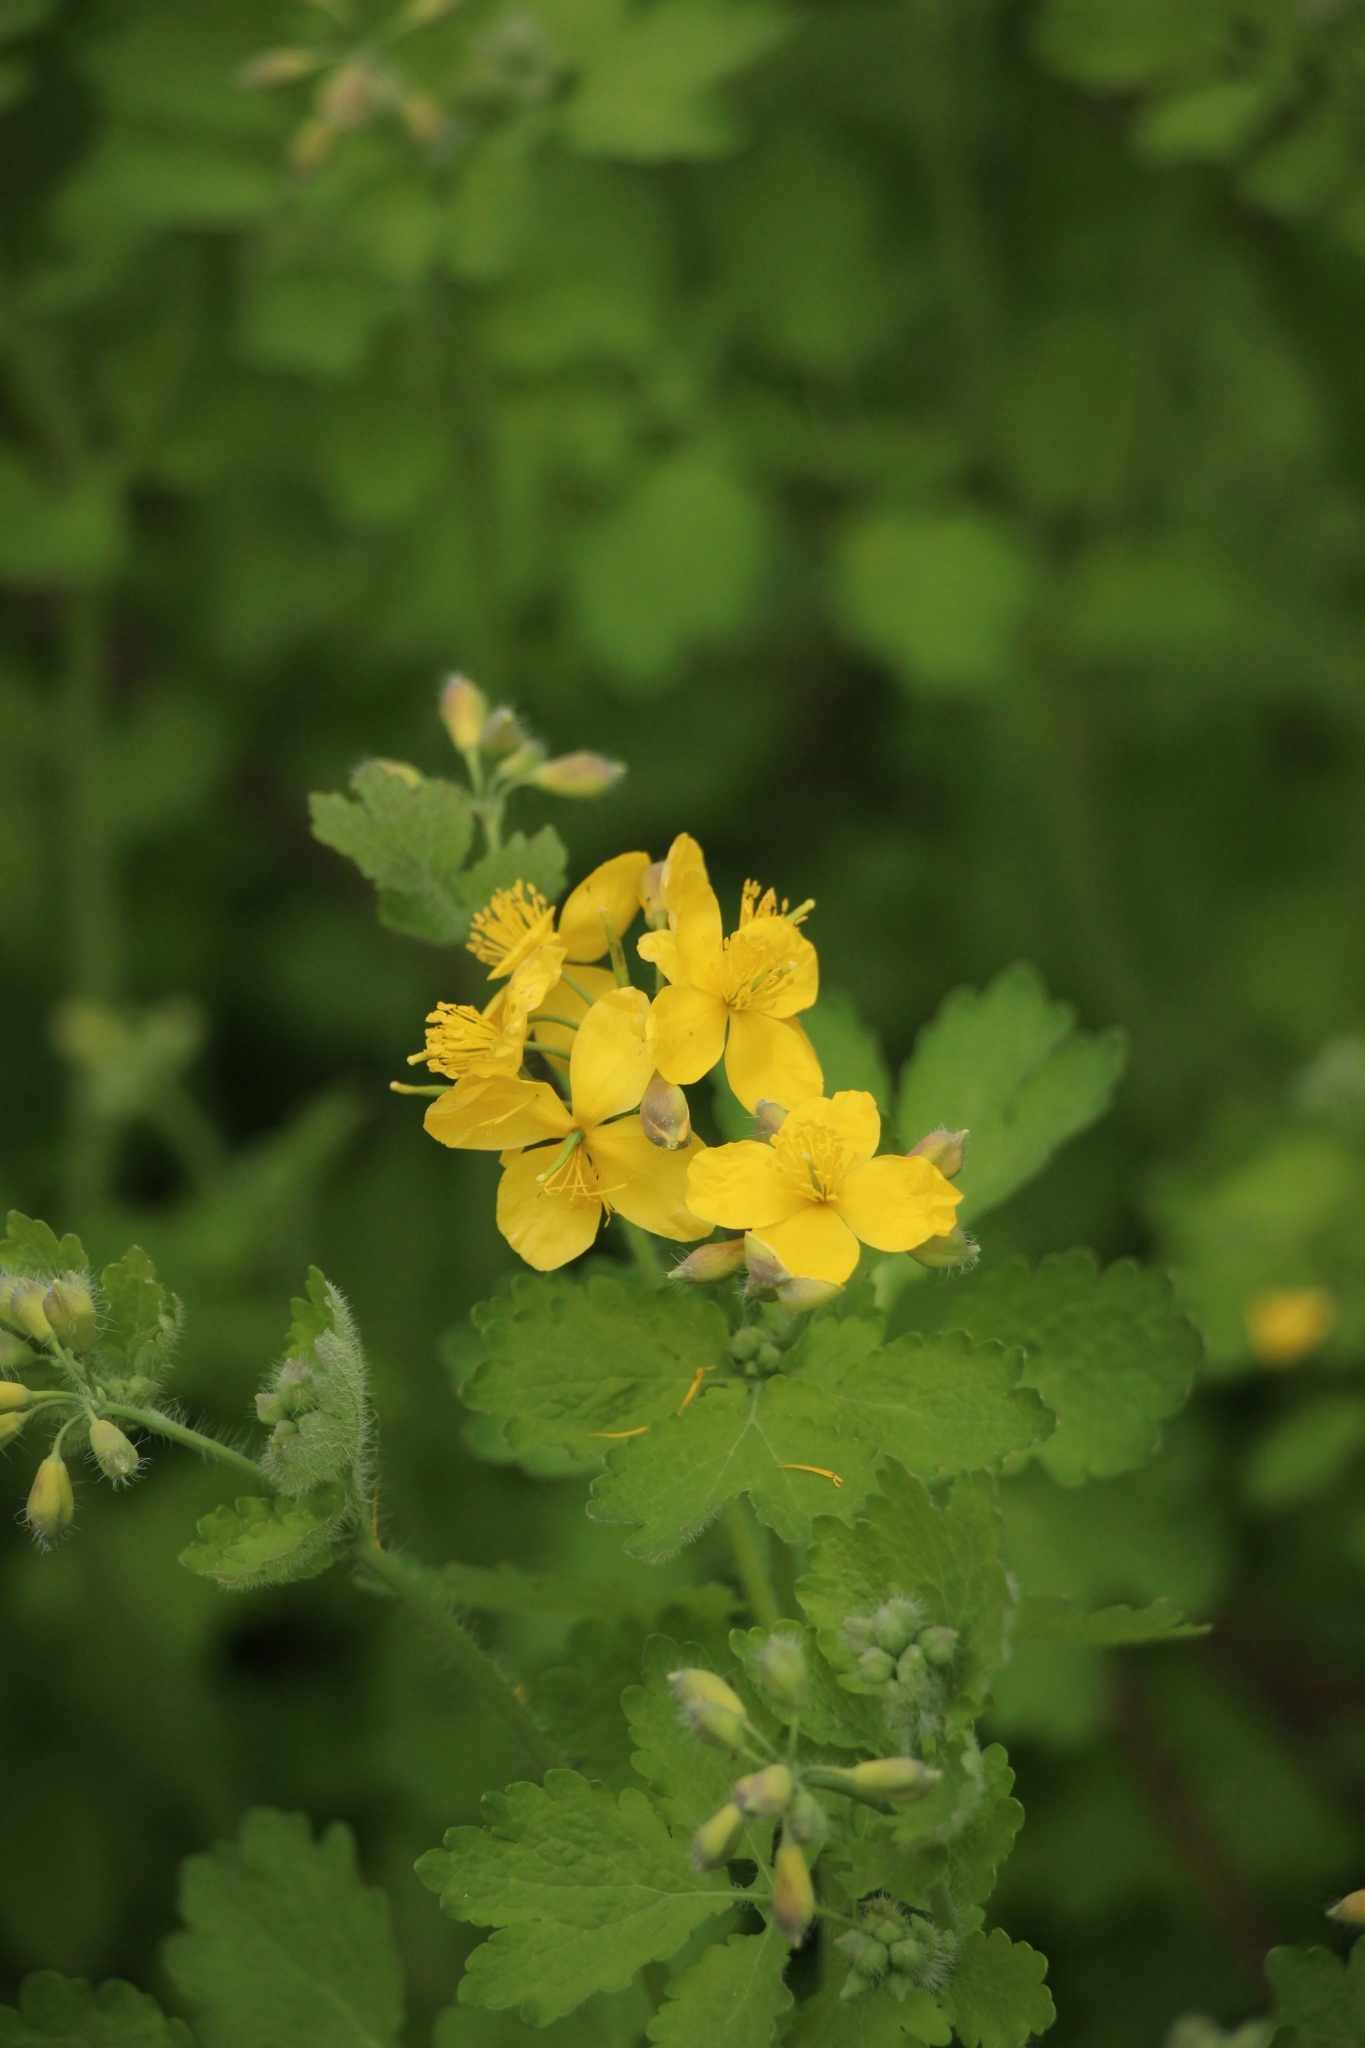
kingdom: Plantae
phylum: Tracheophyta
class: Magnoliopsida
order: Ranunculales
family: Papaveraceae
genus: Chelidonium
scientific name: Chelidonium majus
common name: Greater celandine
